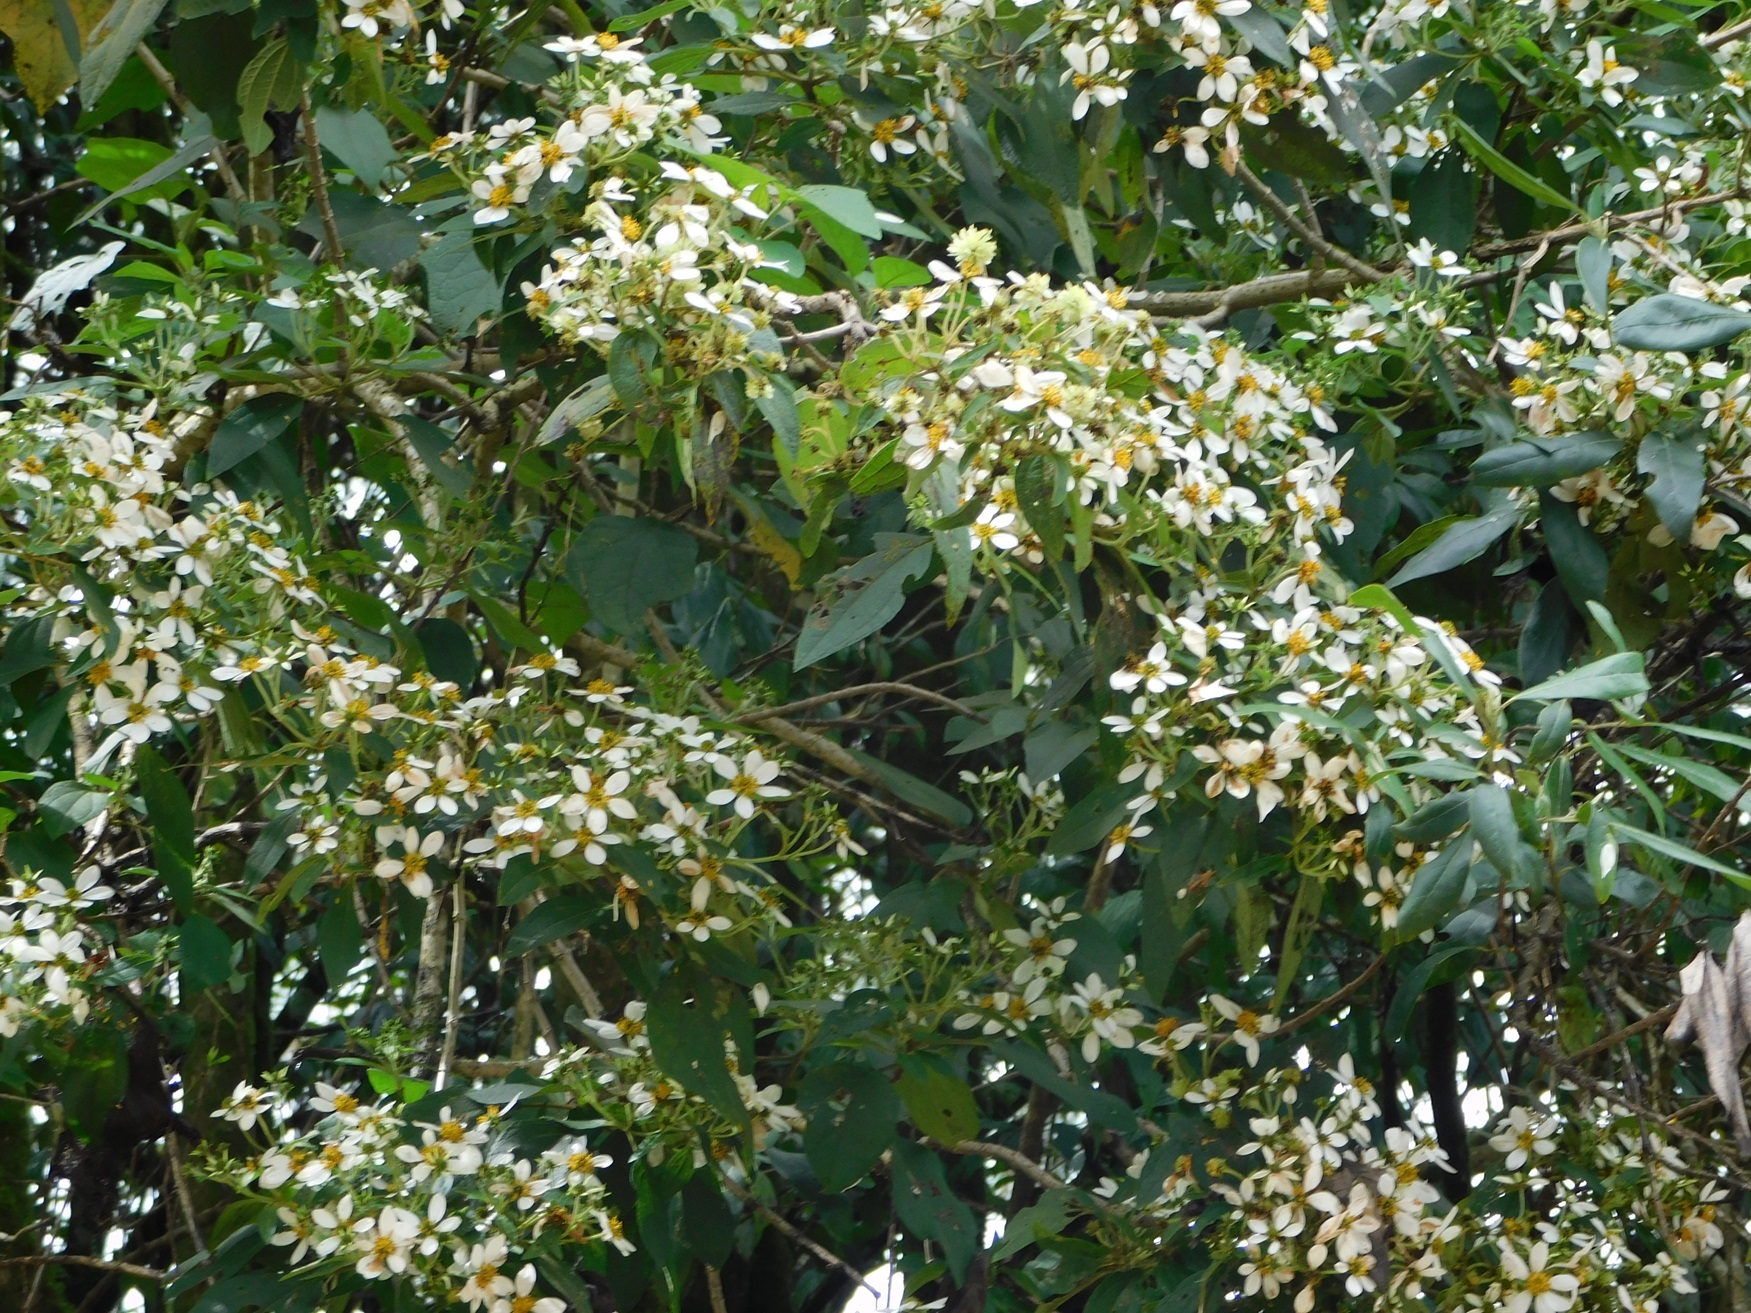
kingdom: Plantae
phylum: Tracheophyta
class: Magnoliopsida
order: Asterales
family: Asteraceae
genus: Montanoa
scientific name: Montanoa leucantha
